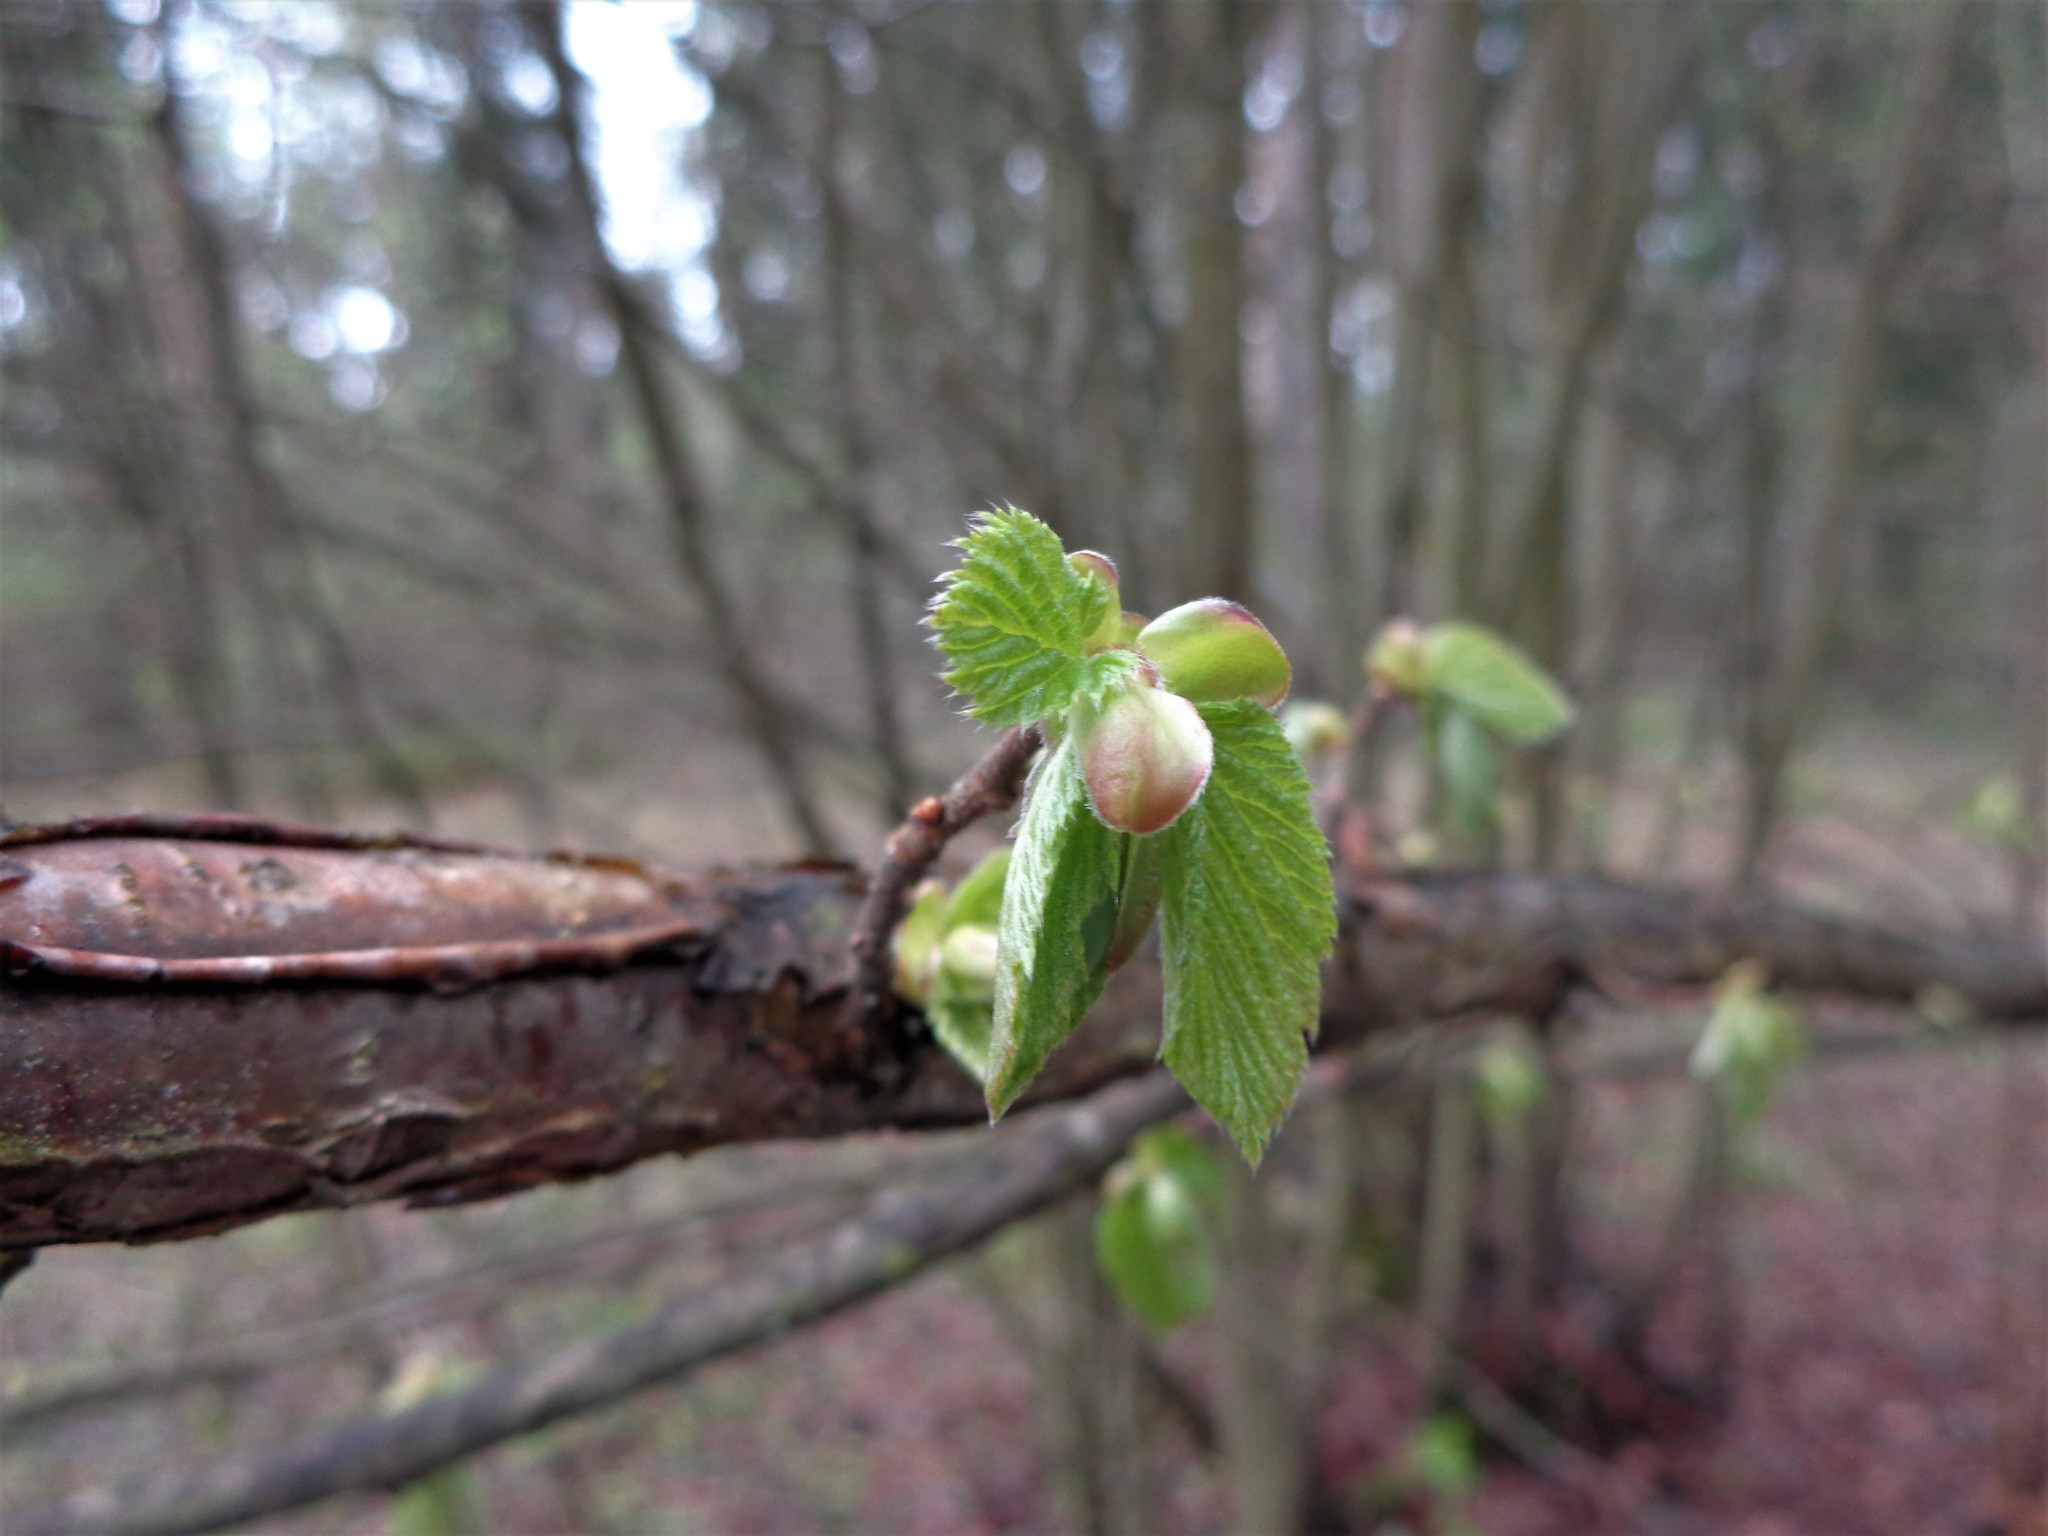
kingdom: Plantae
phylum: Tracheophyta
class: Magnoliopsida
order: Fagales
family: Betulaceae
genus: Corylus
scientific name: Corylus avellana
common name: European hazel
